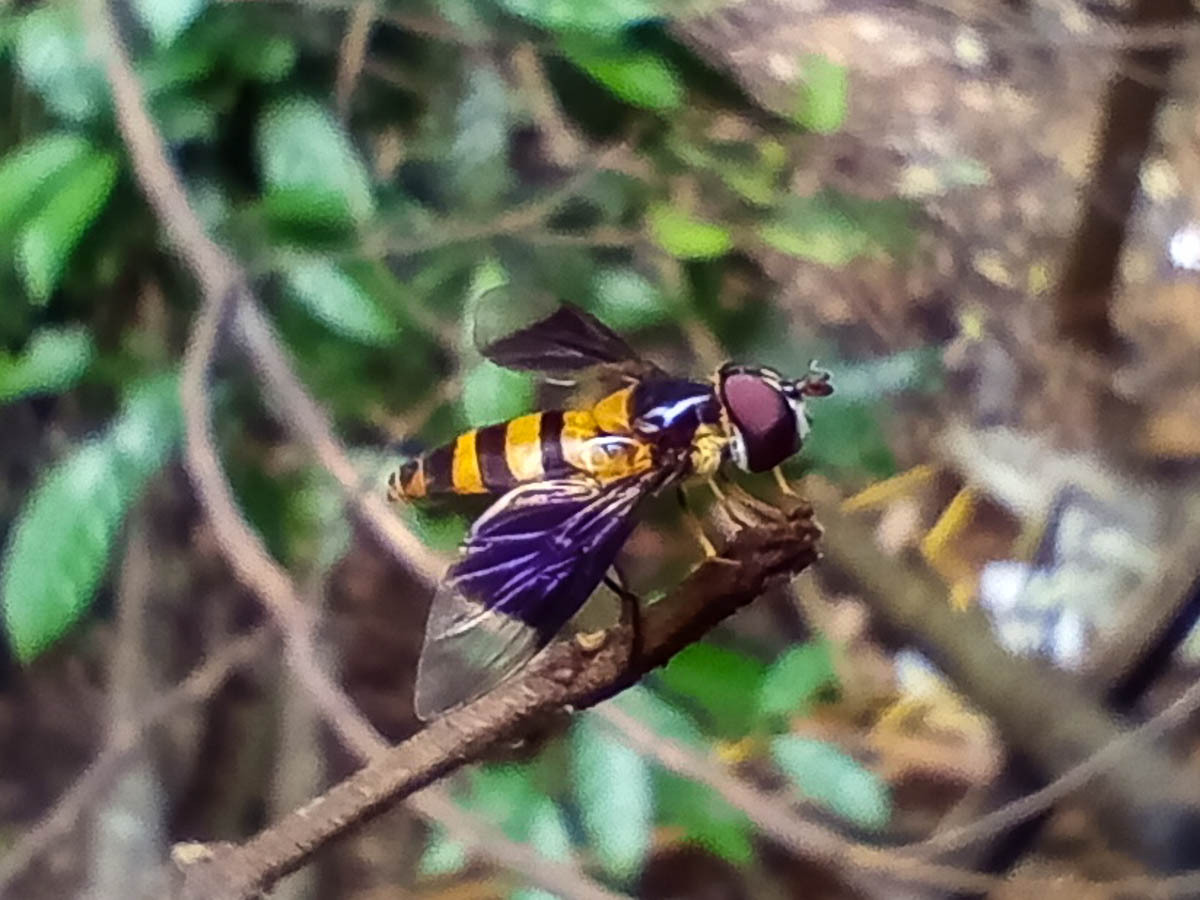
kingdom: Animalia
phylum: Arthropoda
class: Insecta
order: Diptera
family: Syrphidae
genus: Dideopsis
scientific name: Dideopsis aegrota
